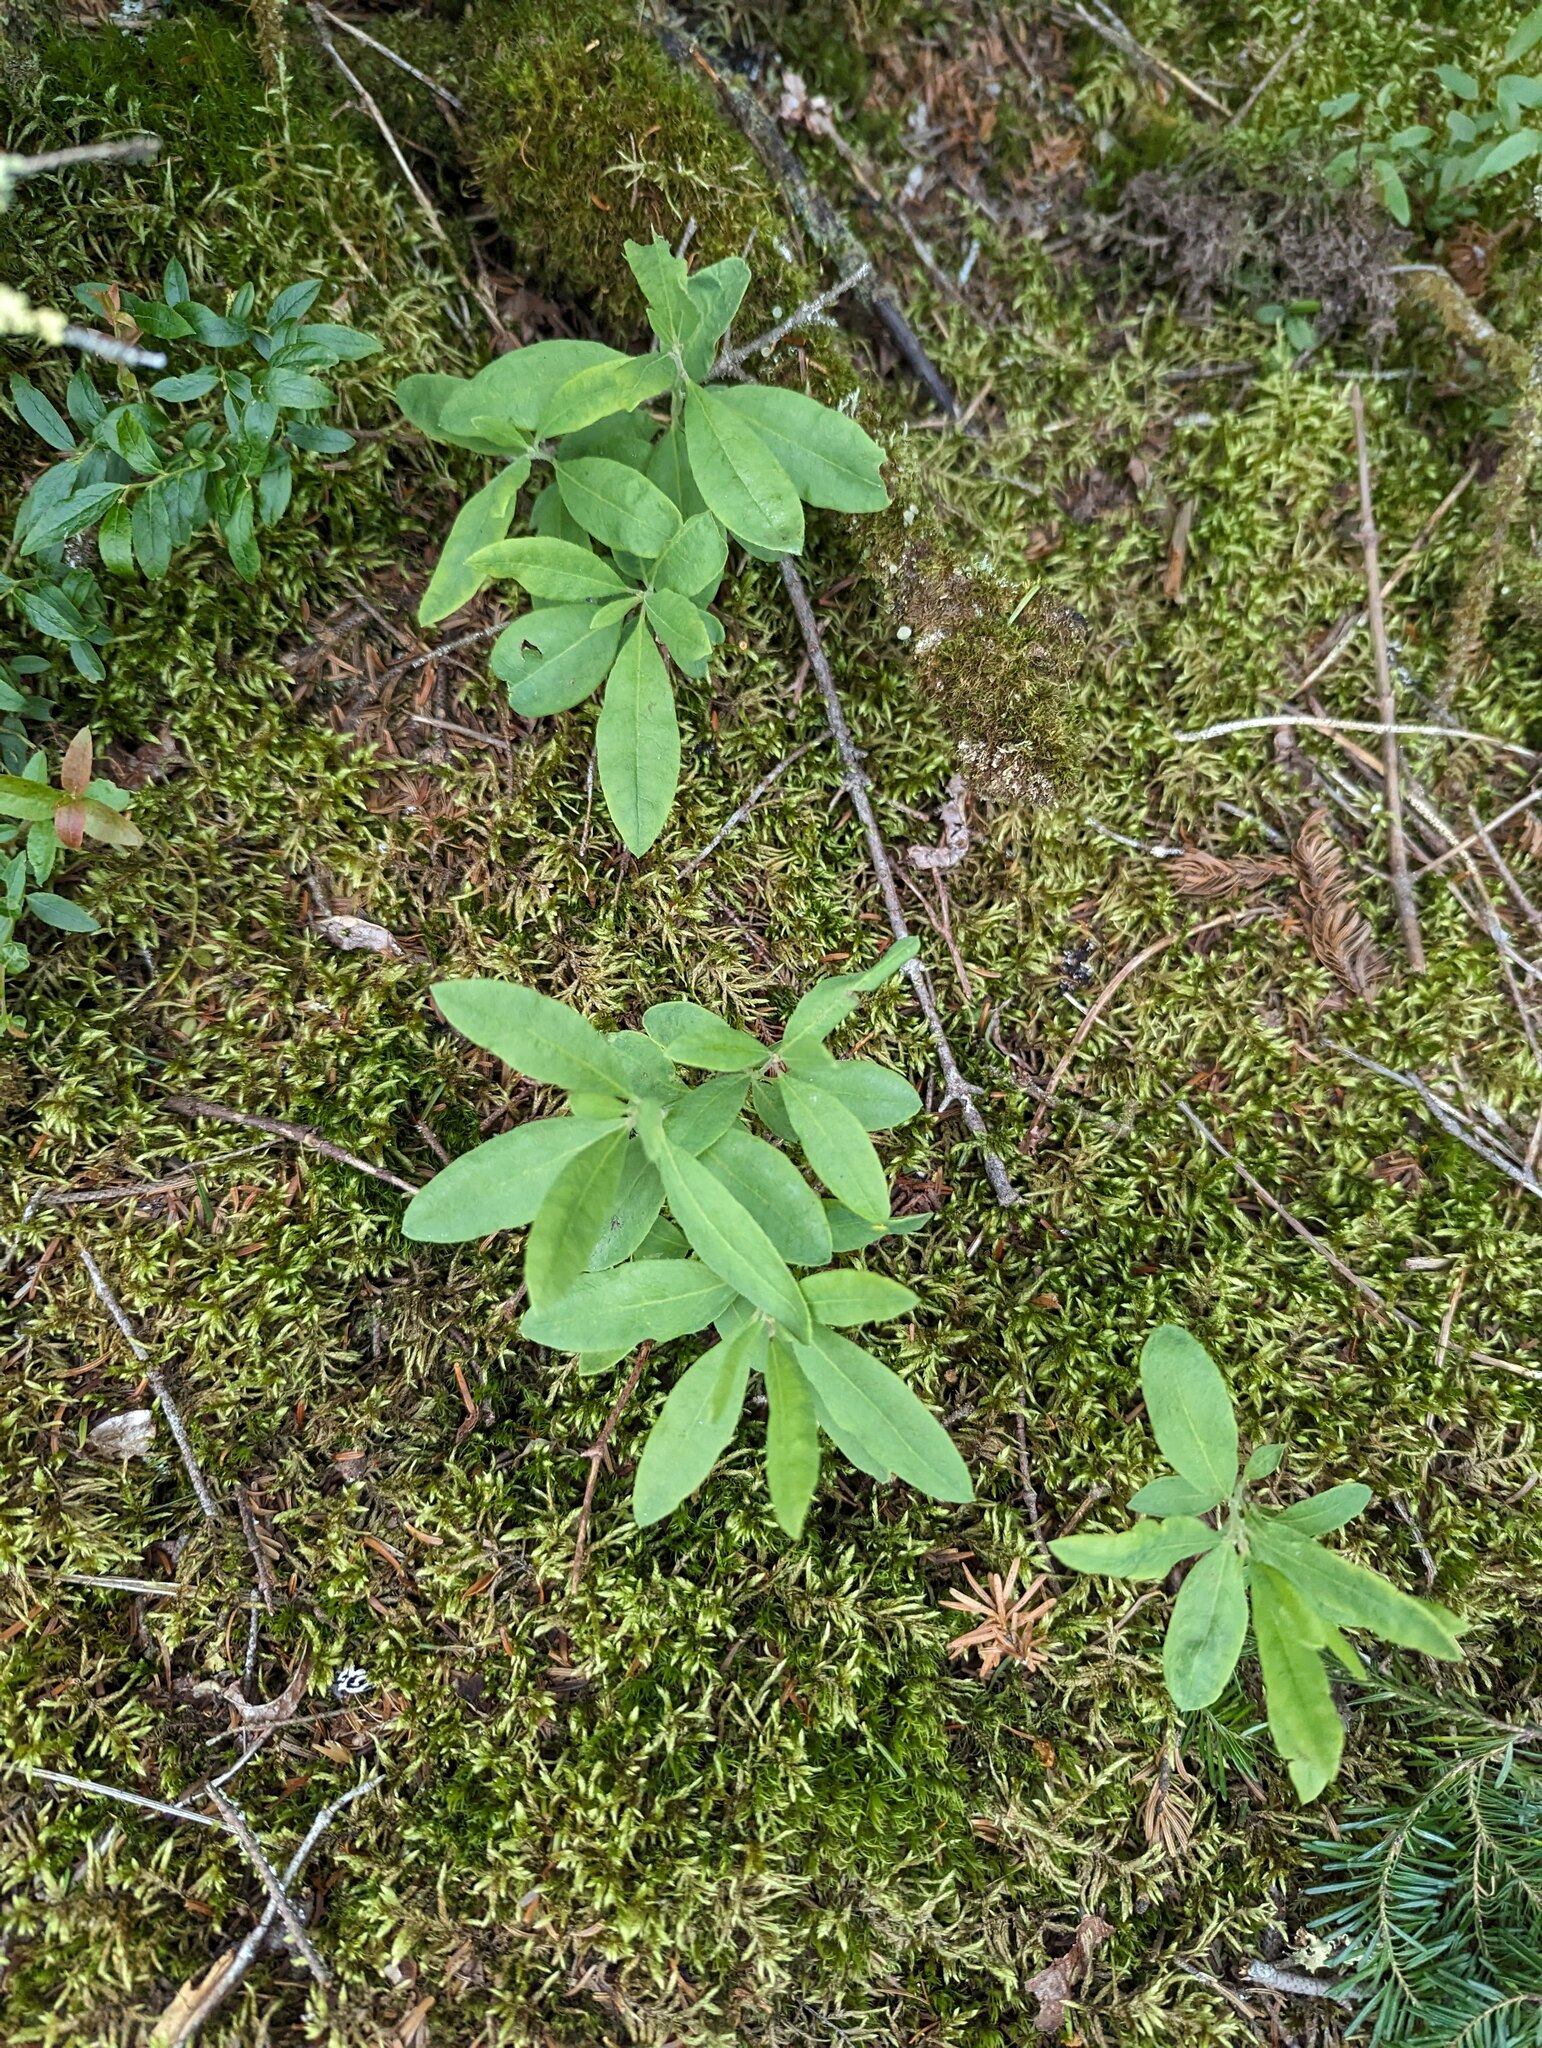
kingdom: Plantae
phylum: Tracheophyta
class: Magnoliopsida
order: Ericales
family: Ericaceae
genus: Rhododendron
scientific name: Rhododendron canadense
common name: Rhodora
